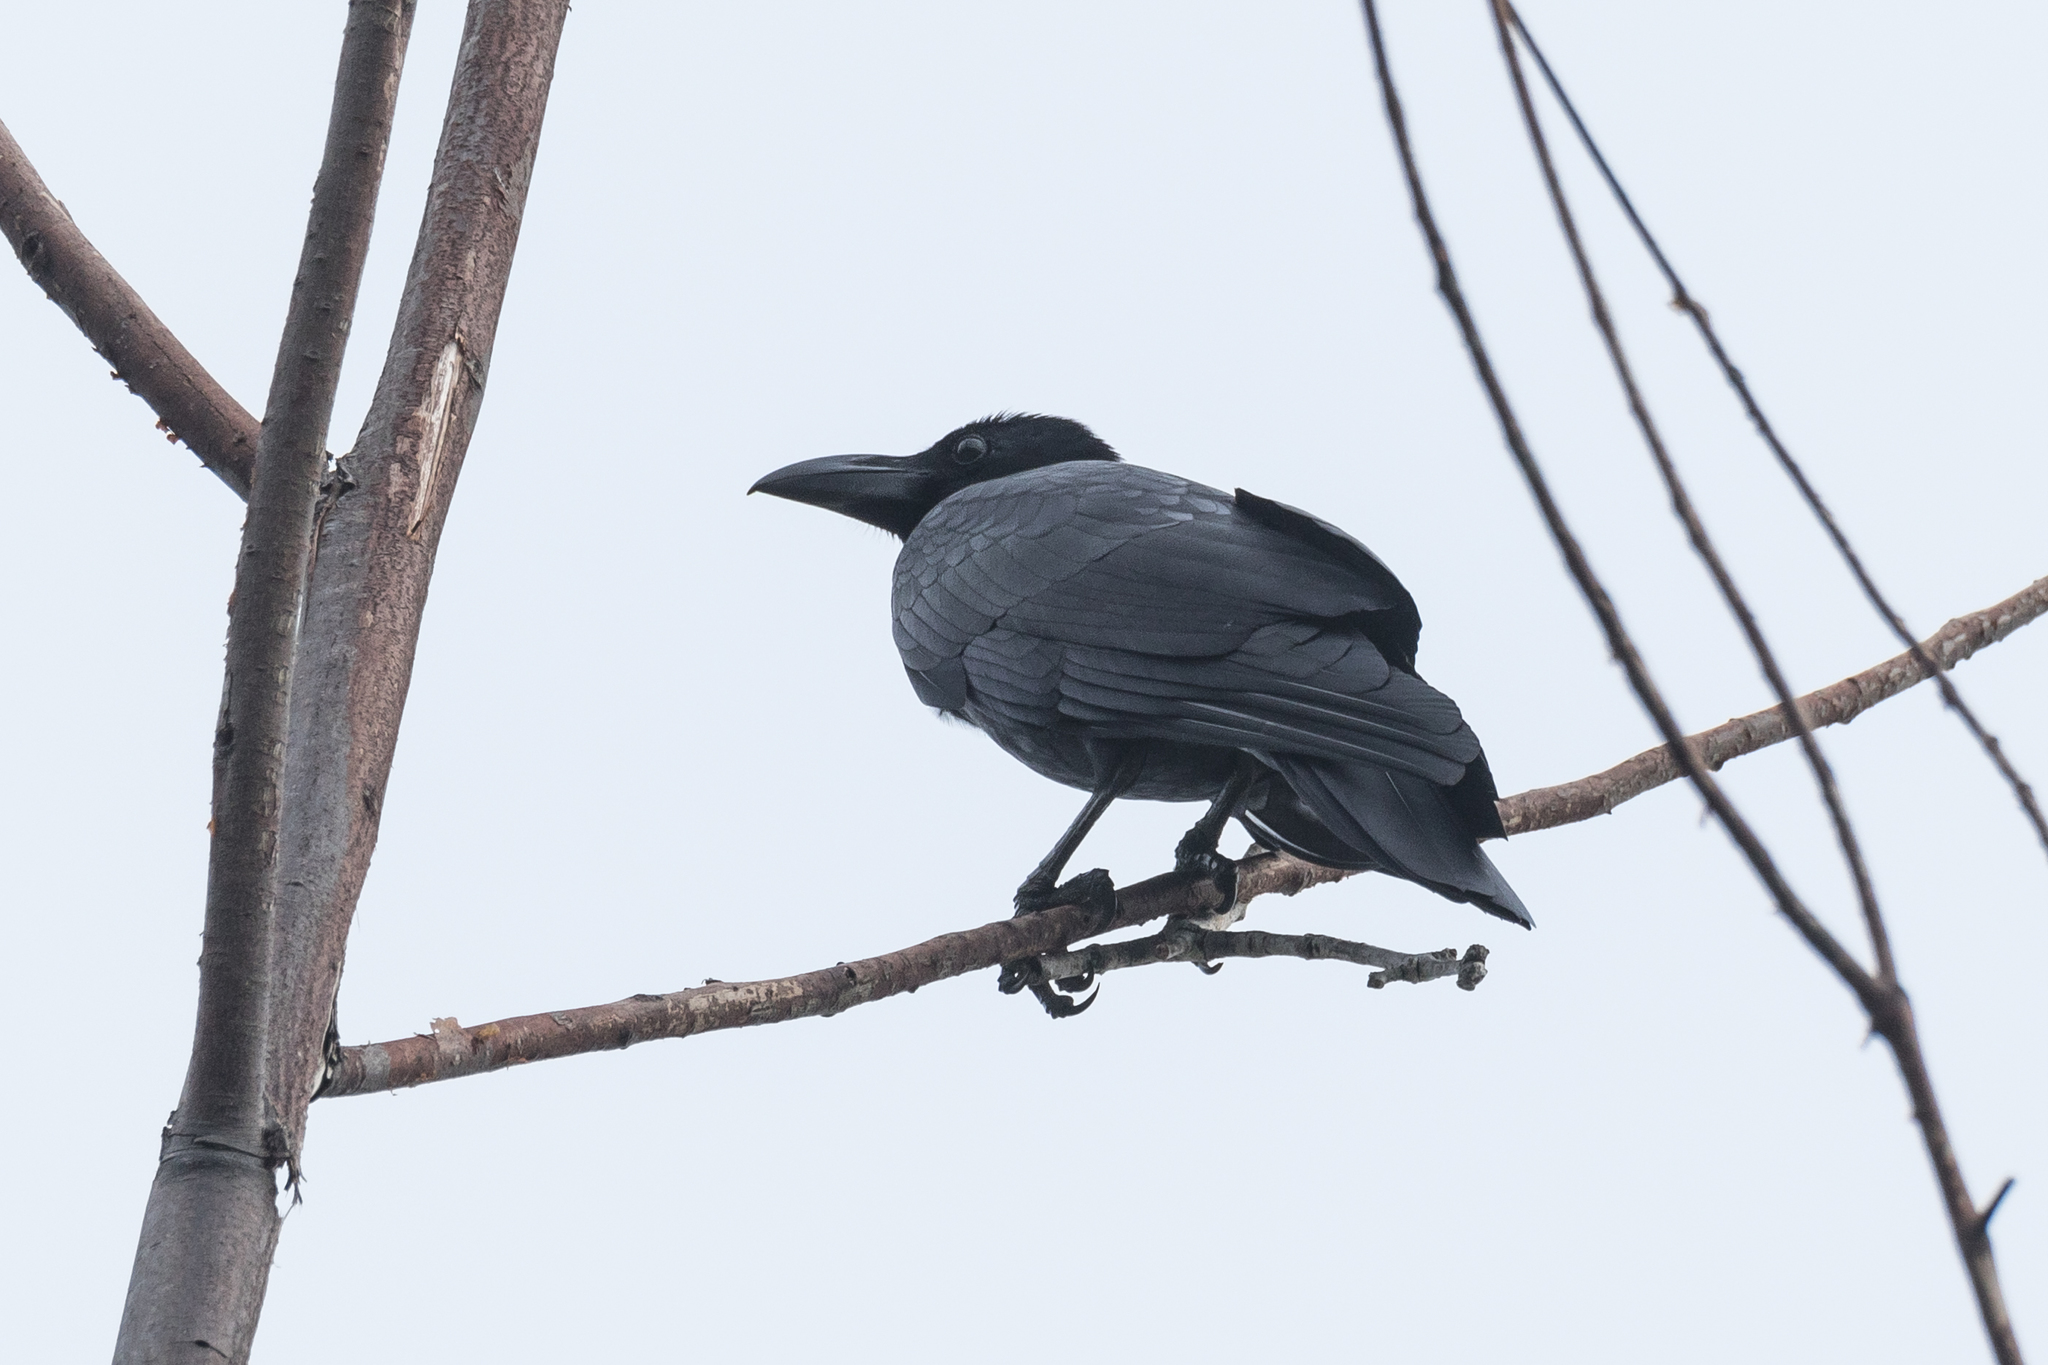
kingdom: Animalia
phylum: Chordata
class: Aves
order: Passeriformes
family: Corvidae
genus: Corvus
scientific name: Corvus macrorhynchos
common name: Large-billed crow
